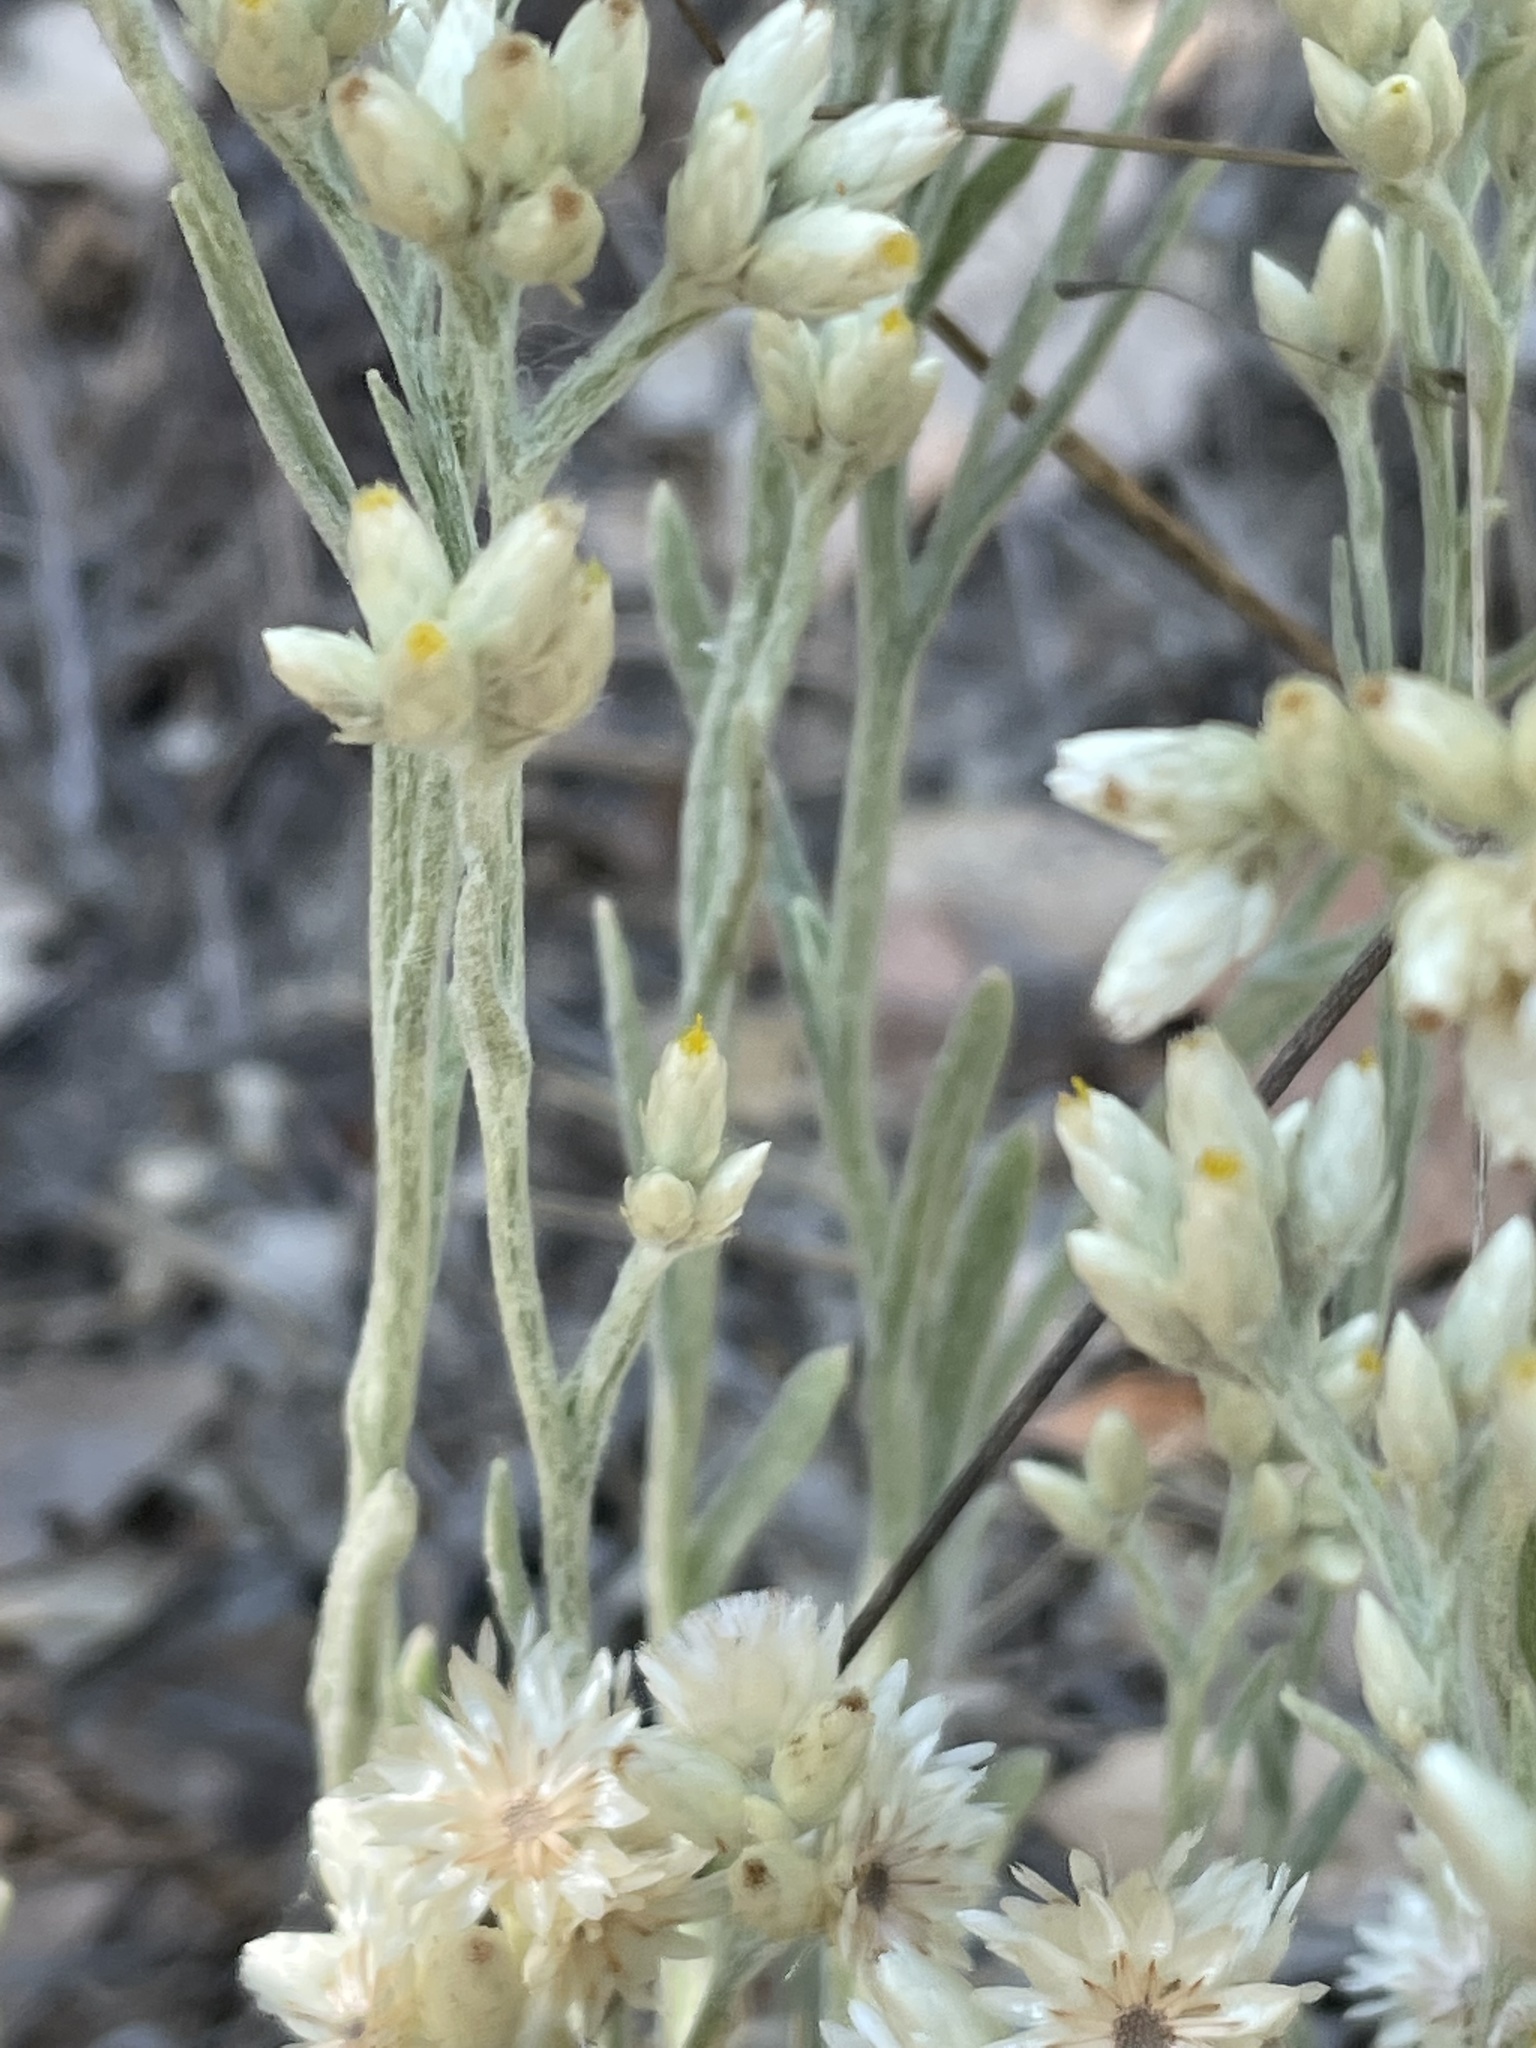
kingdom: Plantae
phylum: Tracheophyta
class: Magnoliopsida
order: Asterales
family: Asteraceae
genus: Pseudognaphalium
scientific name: Pseudognaphalium beneolens
